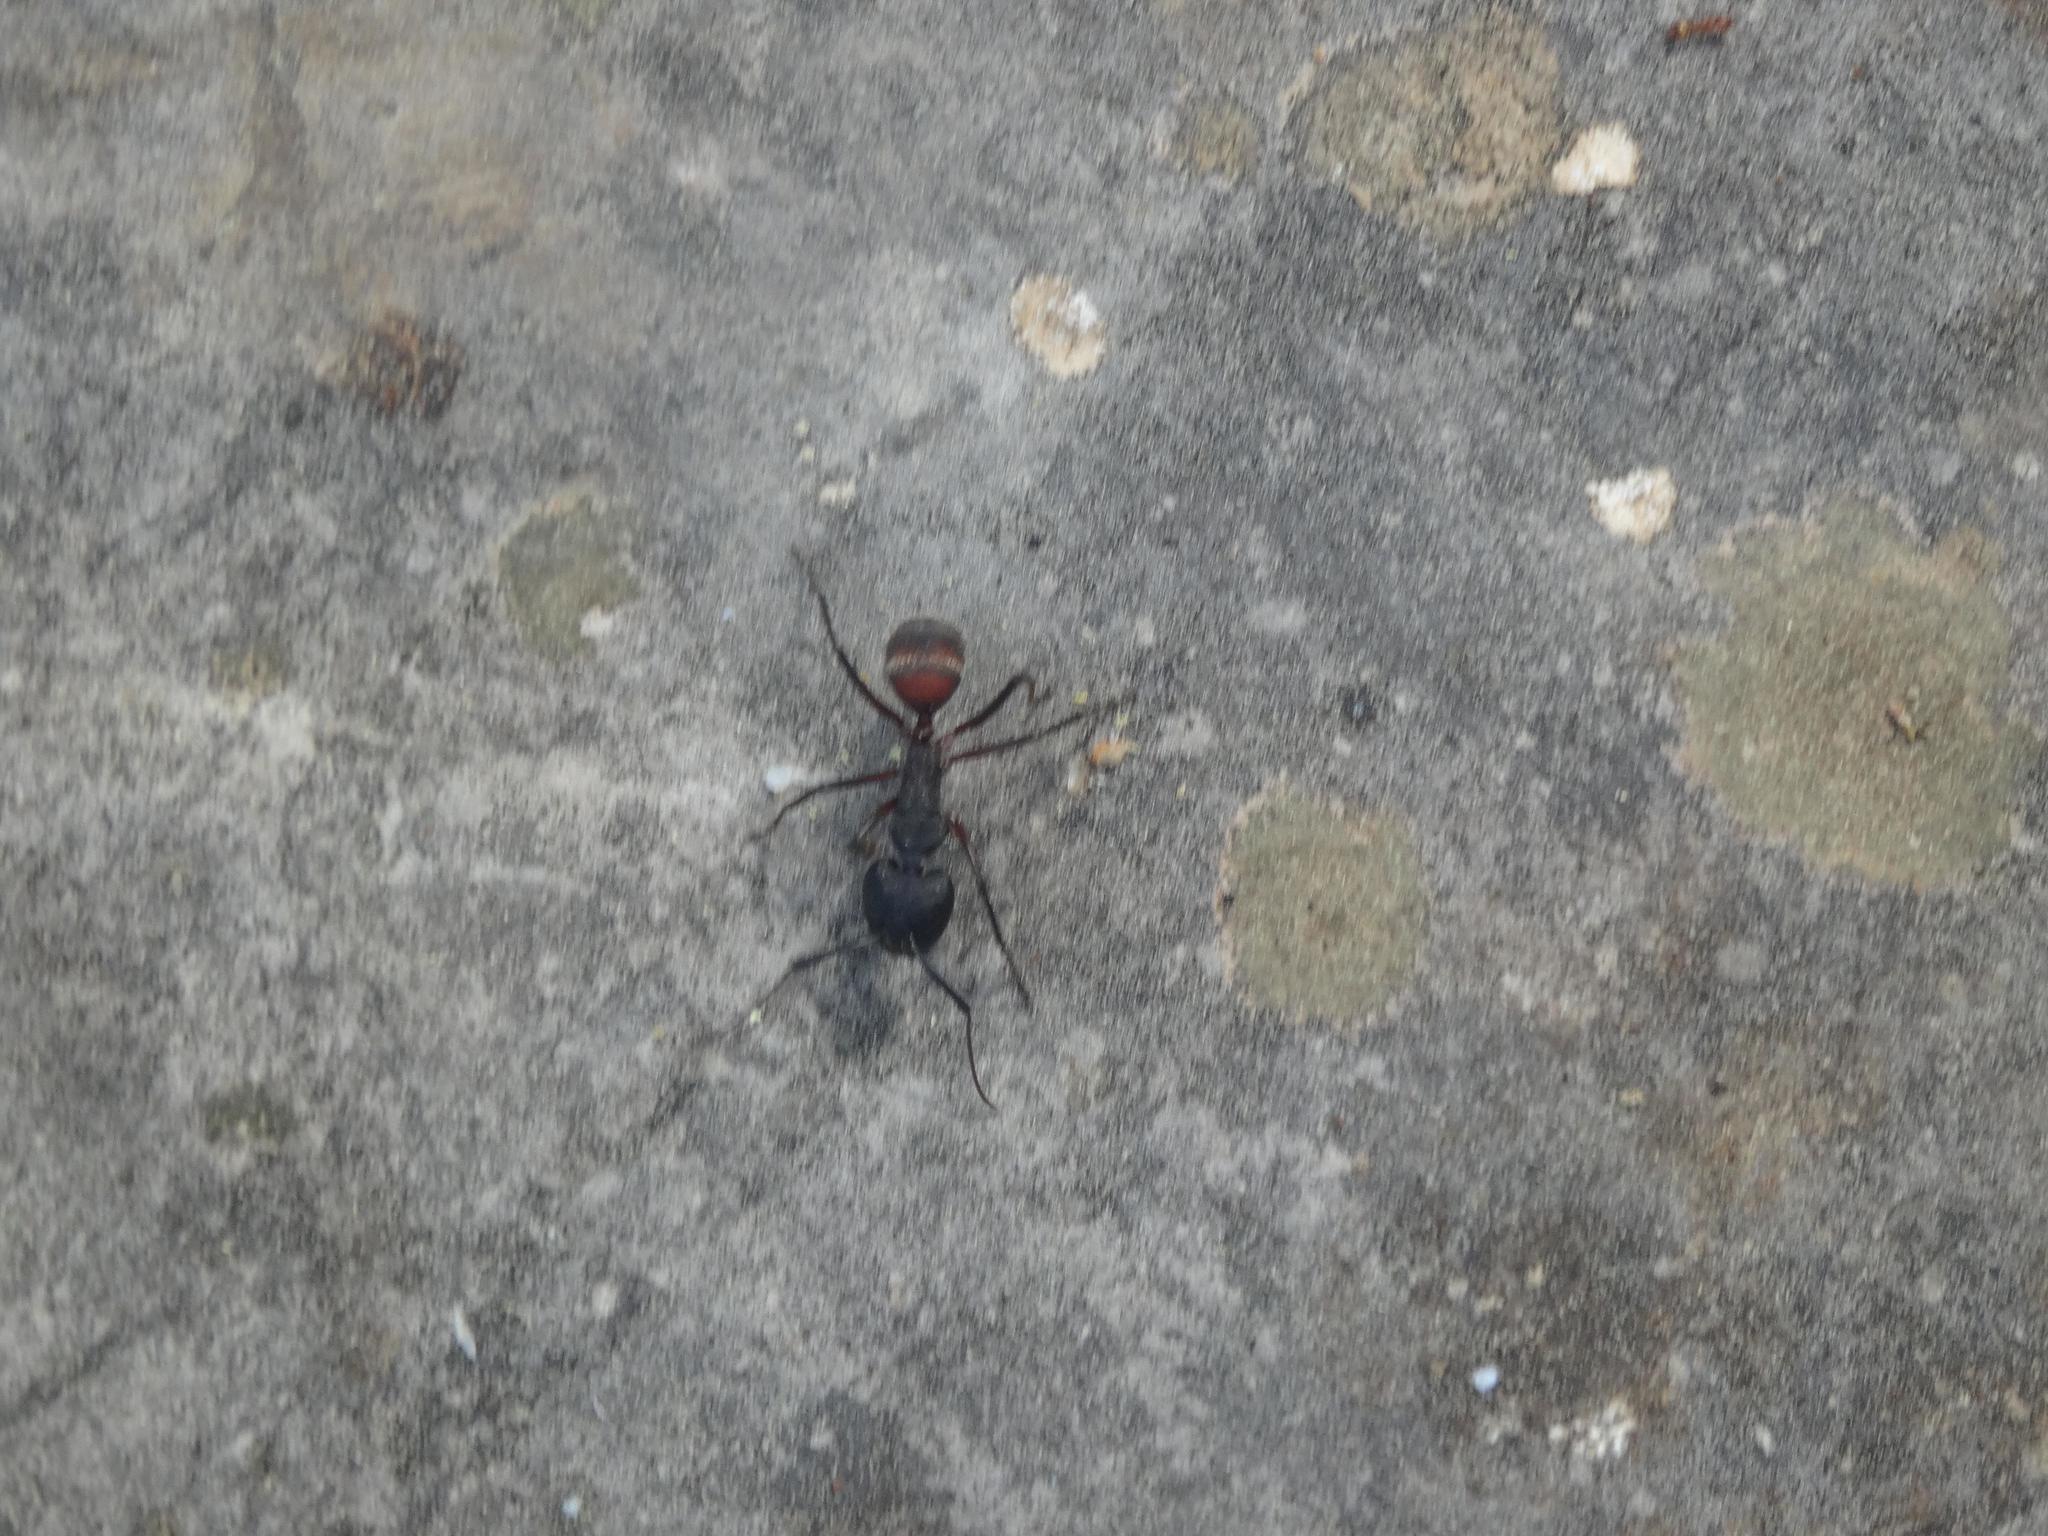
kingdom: Animalia
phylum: Arthropoda
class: Insecta
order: Hymenoptera
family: Formicidae
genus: Camponotus
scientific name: Camponotus cruentatus
